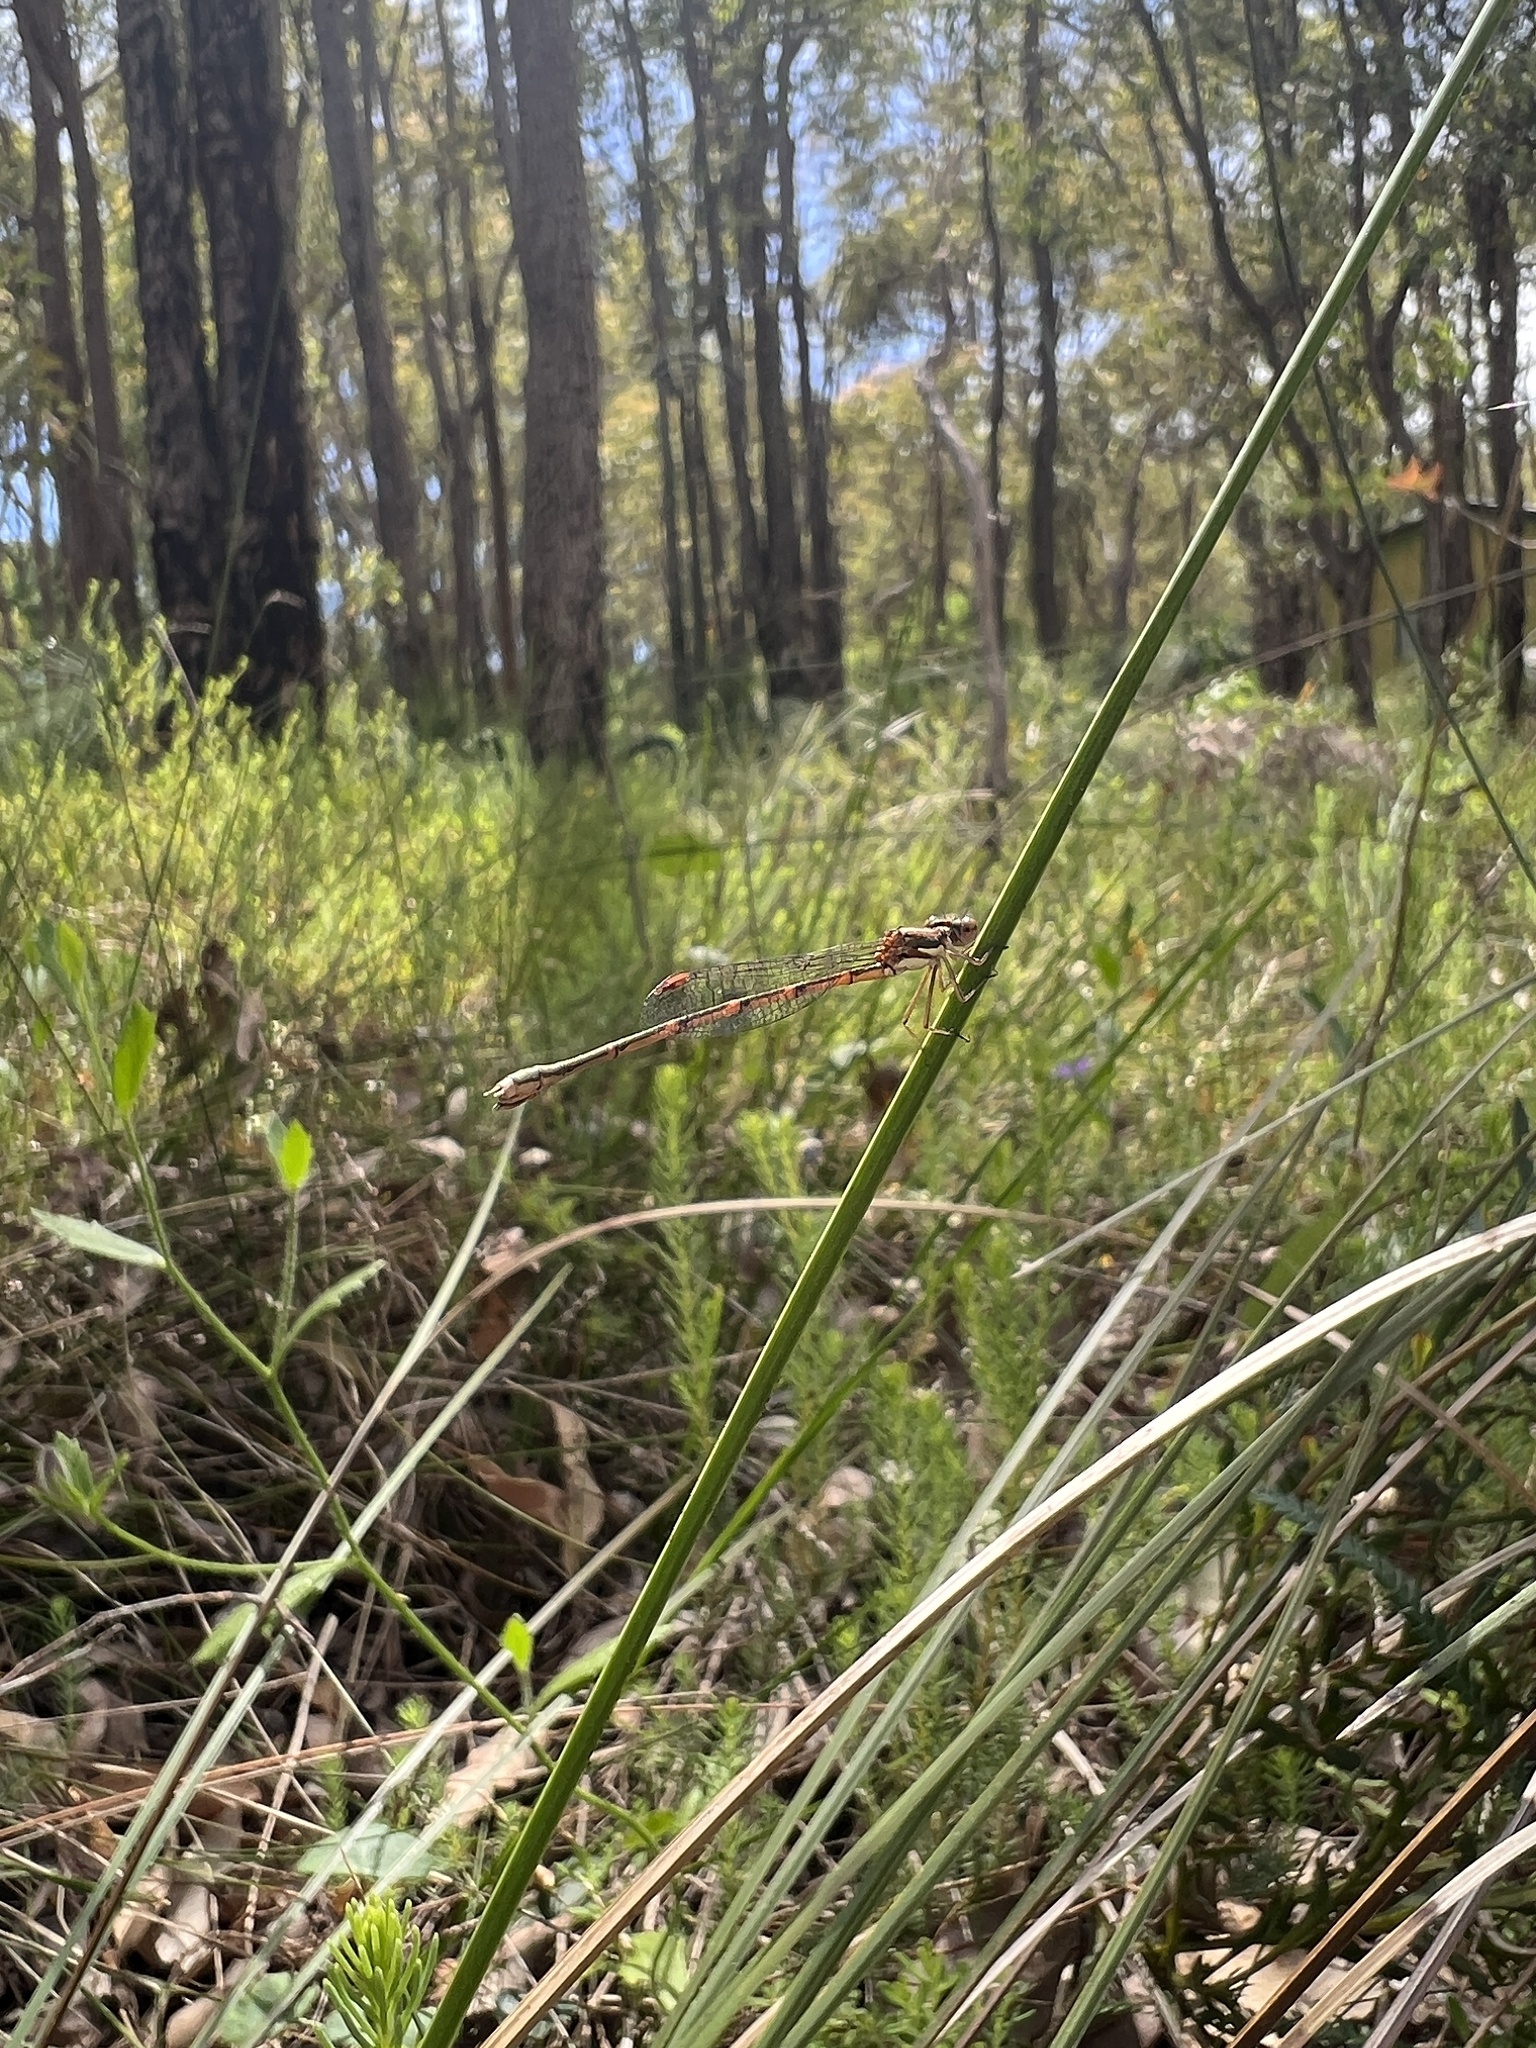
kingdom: Animalia
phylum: Arthropoda
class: Insecta
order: Odonata
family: Lestidae
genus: Austrolestes
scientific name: Austrolestes analis
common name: Slender ringtail
